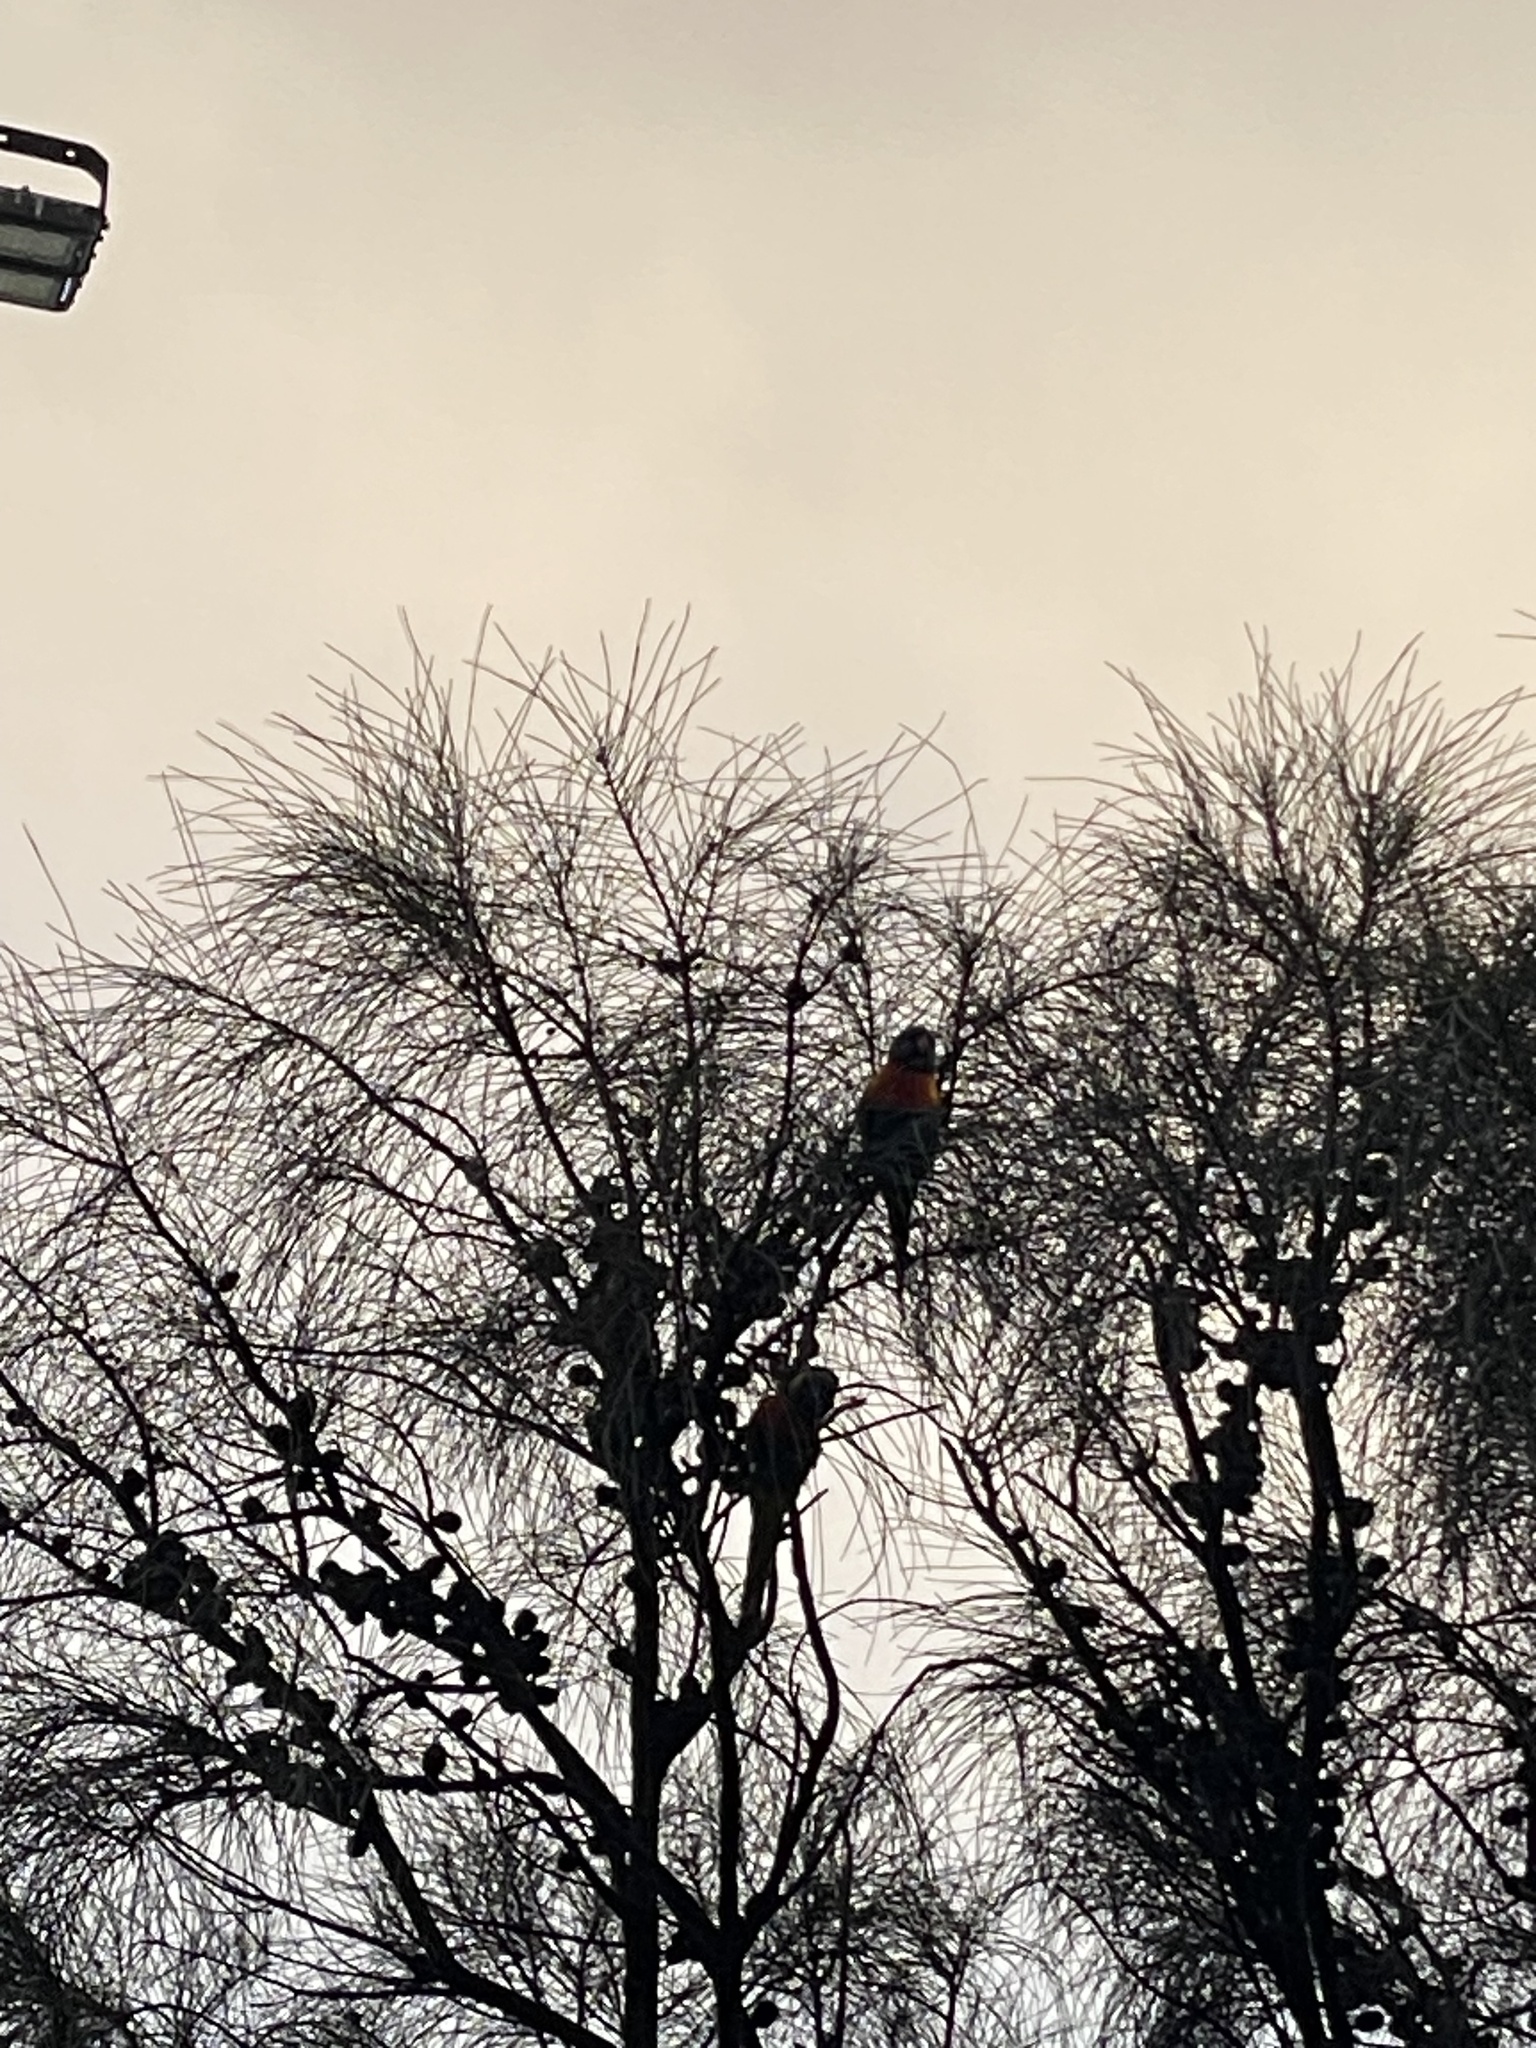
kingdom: Animalia
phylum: Chordata
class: Aves
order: Psittaciformes
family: Psittacidae
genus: Trichoglossus
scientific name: Trichoglossus haematodus
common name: Coconut lorikeet
